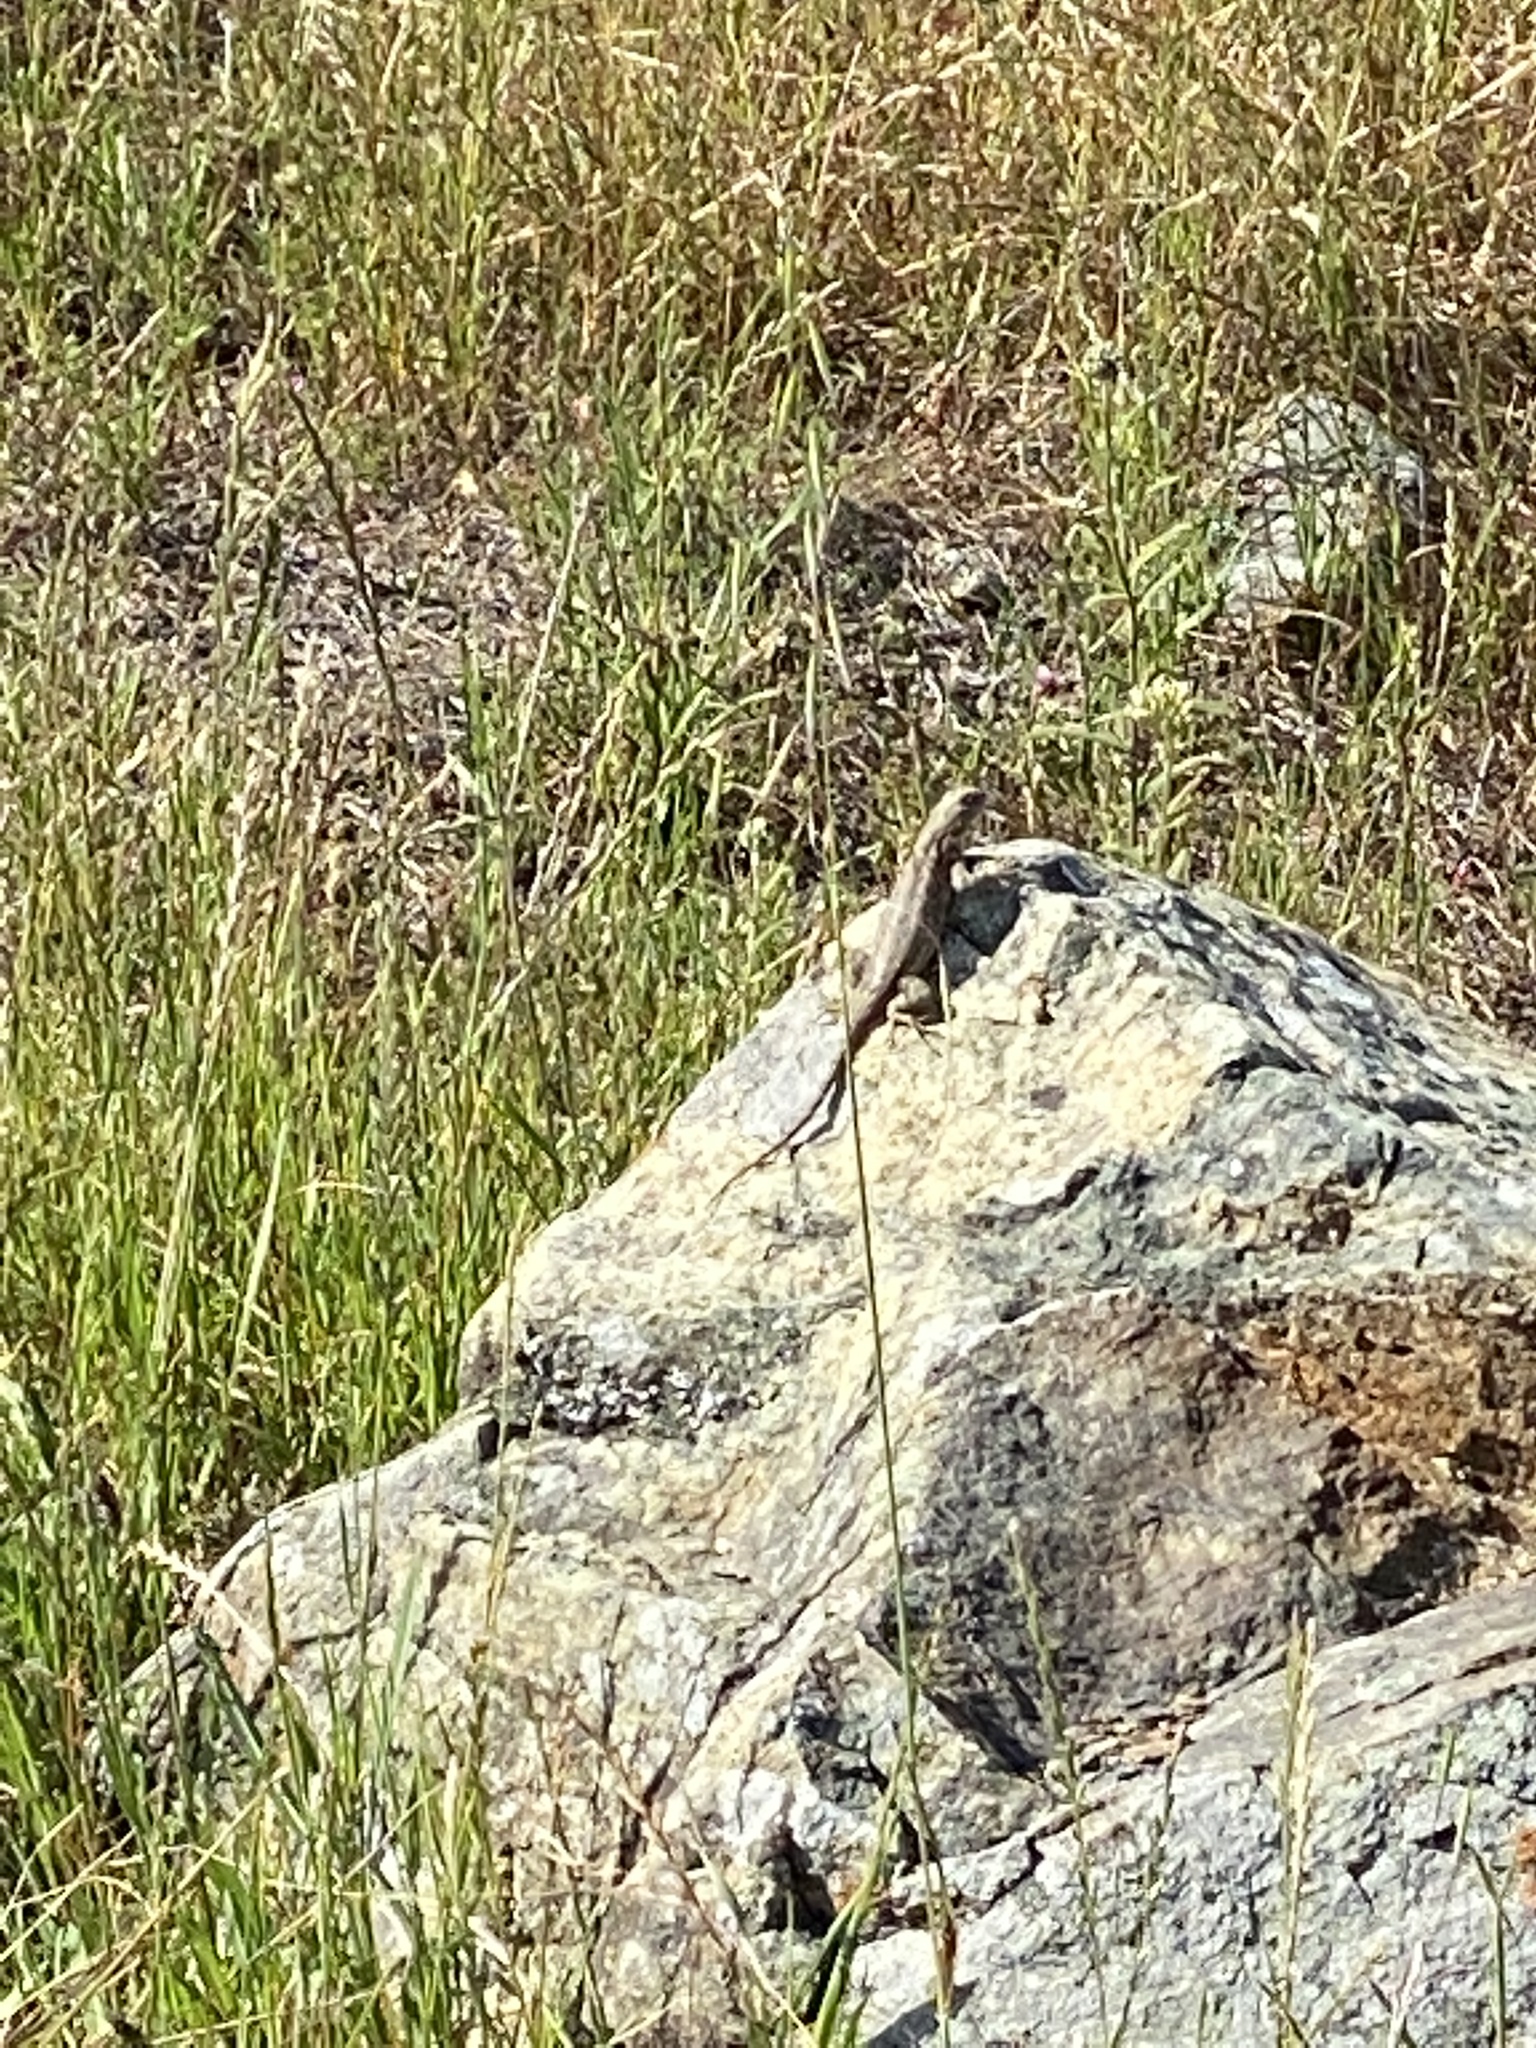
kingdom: Animalia
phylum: Chordata
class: Squamata
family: Phrynosomatidae
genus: Sceloporus
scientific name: Sceloporus occidentalis
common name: Western fence lizard
